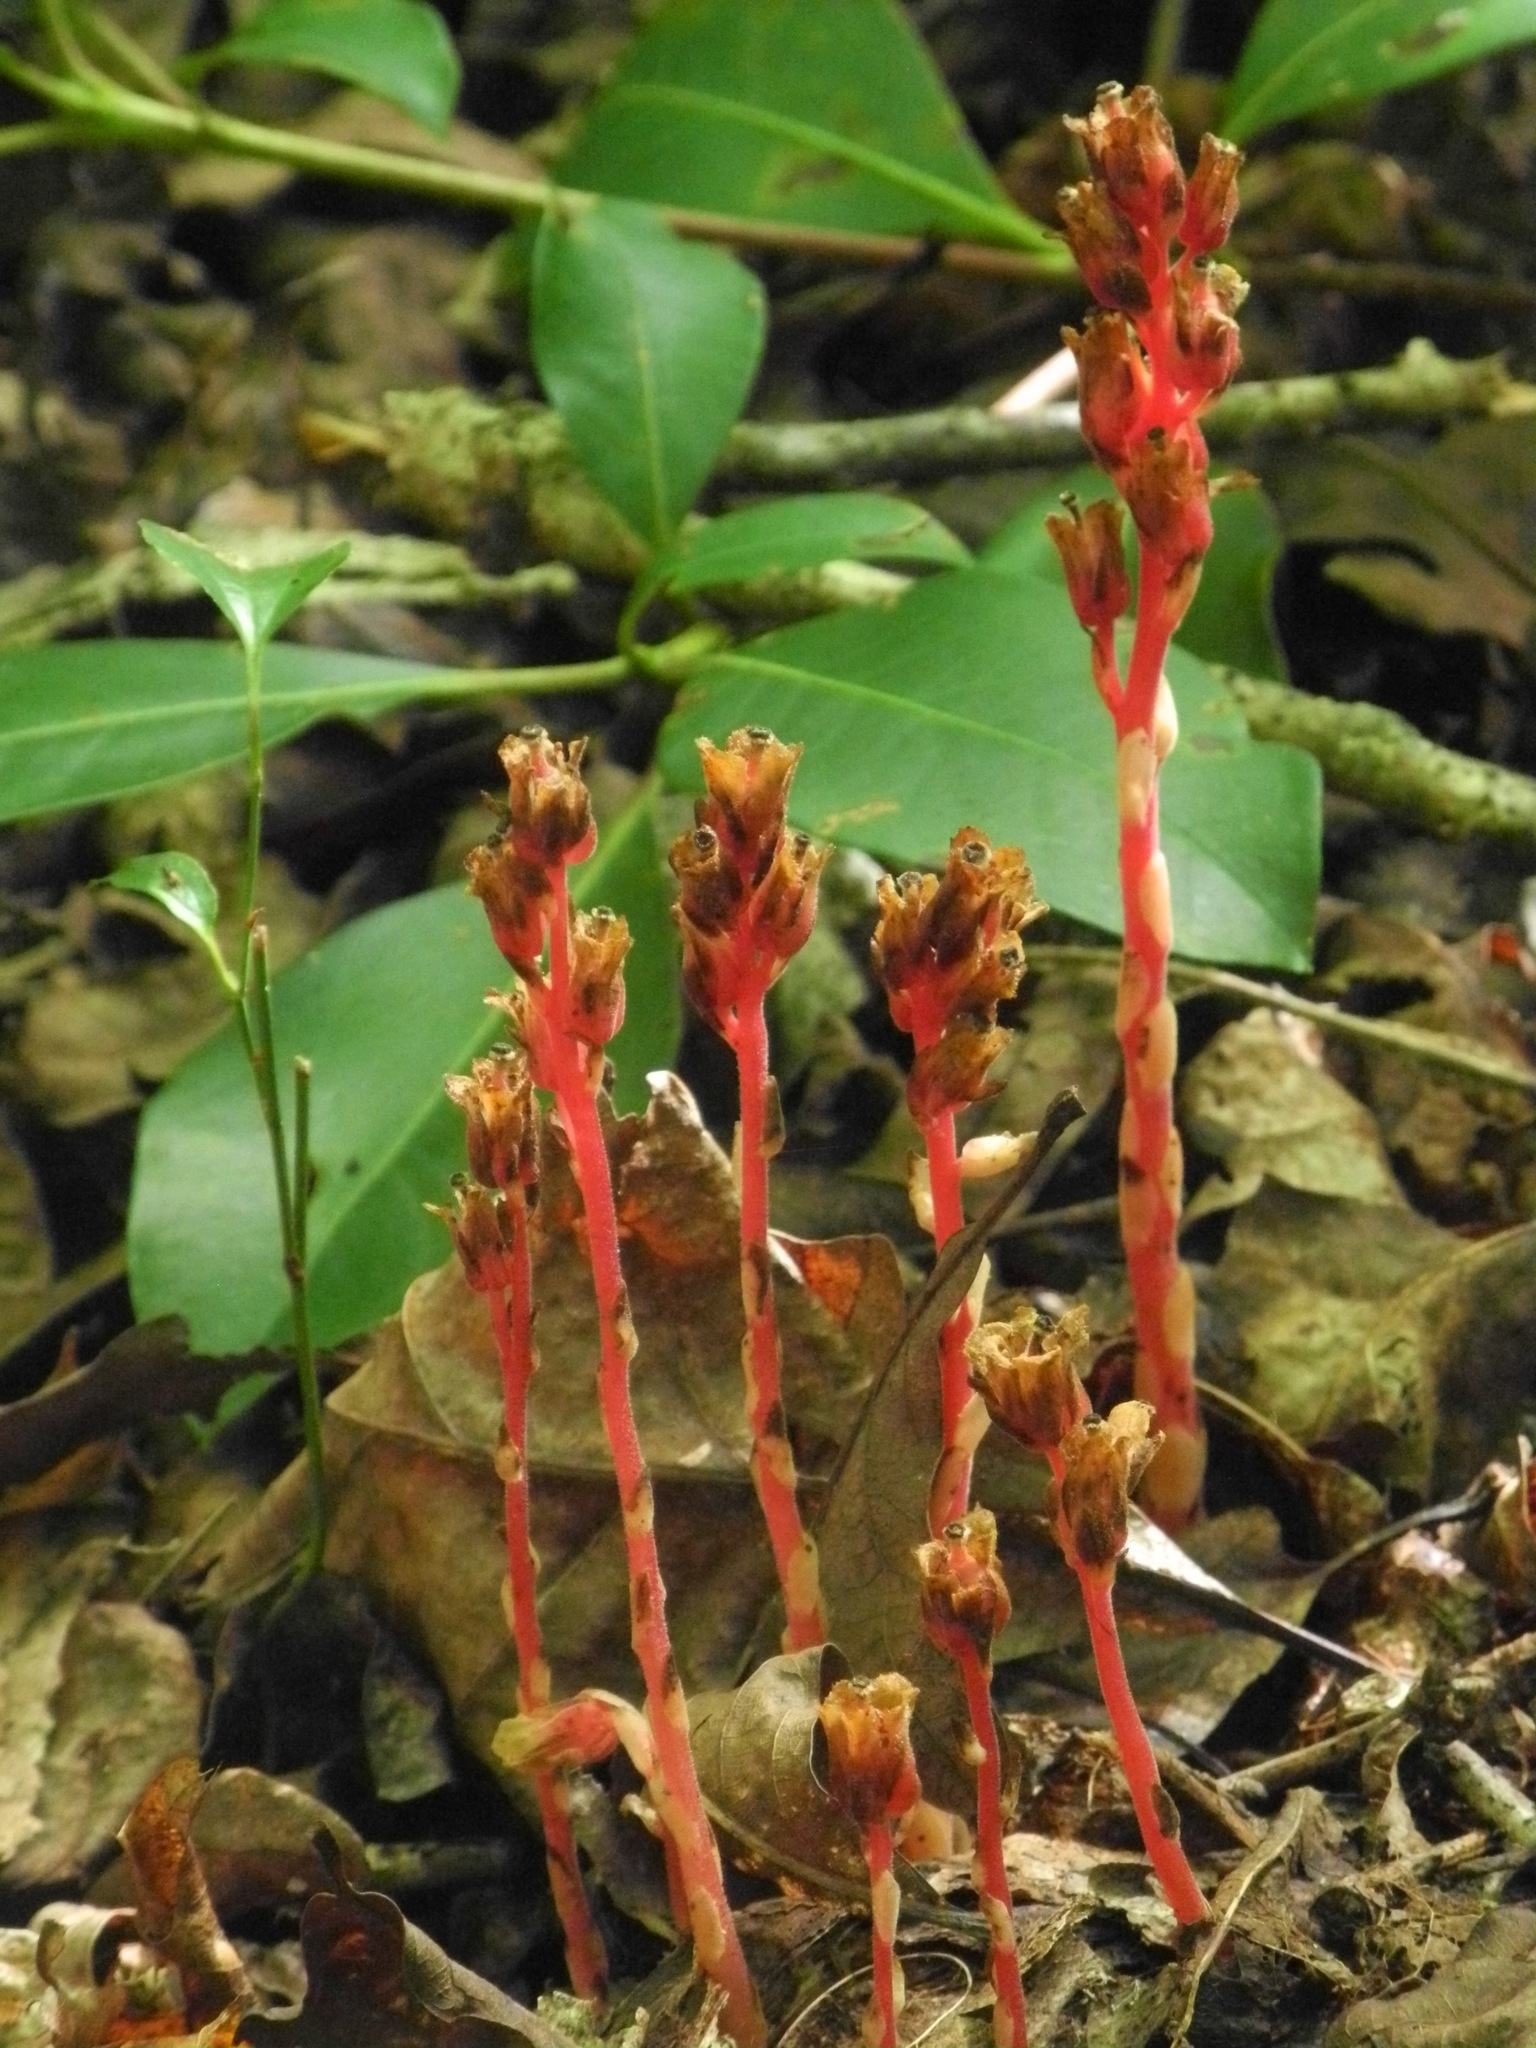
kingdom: Plantae
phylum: Tracheophyta
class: Magnoliopsida
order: Ericales
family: Ericaceae
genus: Hypopitys
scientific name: Hypopitys monotropa
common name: Yellow bird's-nest
